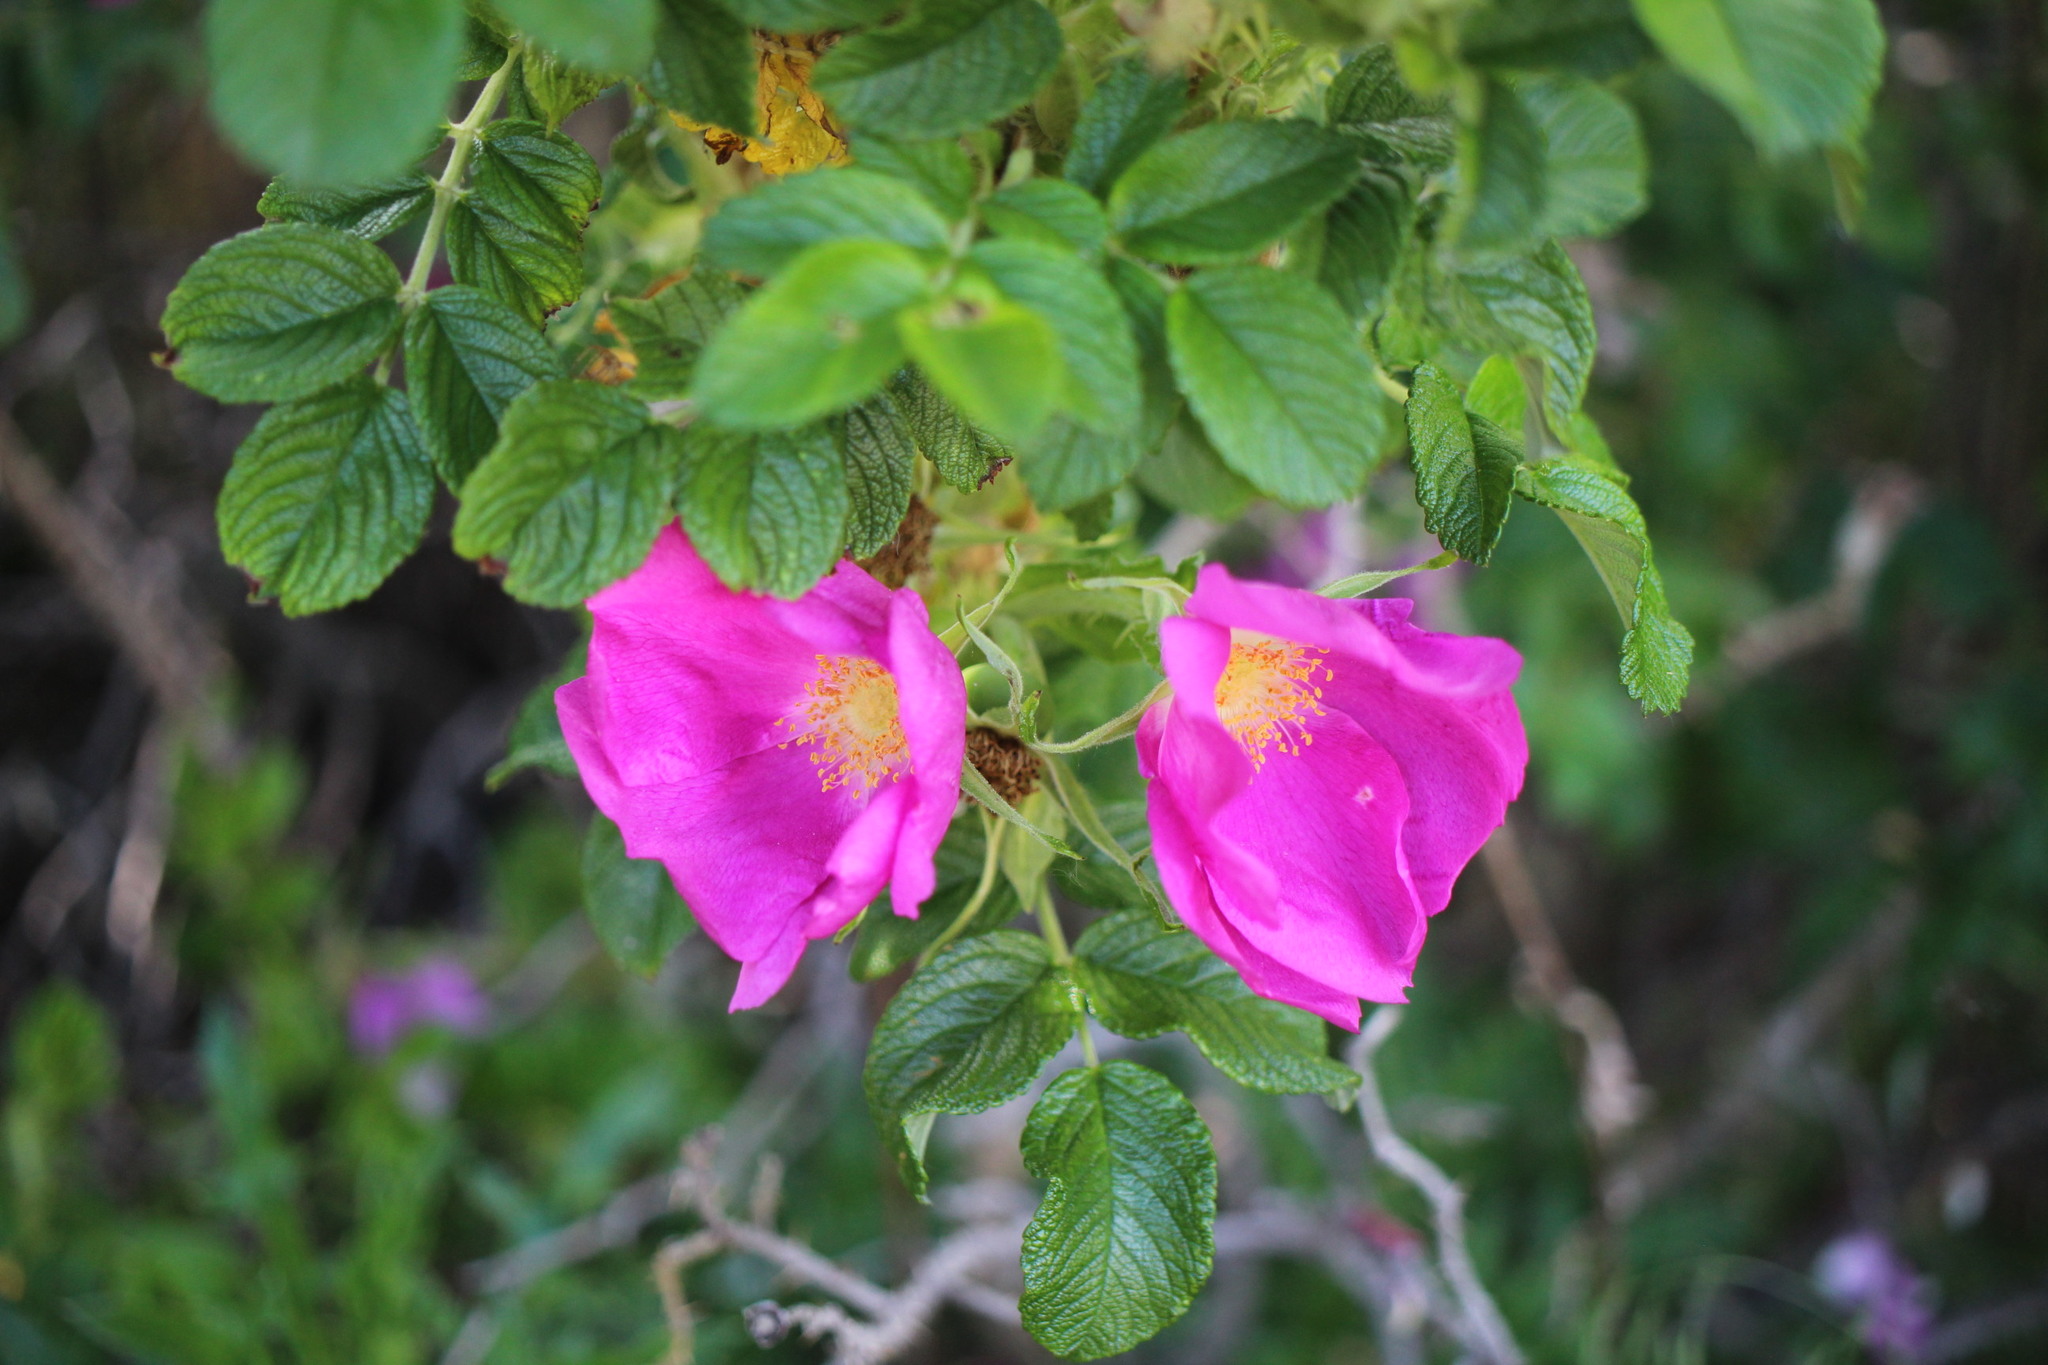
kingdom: Plantae
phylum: Tracheophyta
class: Magnoliopsida
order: Rosales
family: Rosaceae
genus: Rosa
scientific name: Rosa rugosa
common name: Japanese rose
